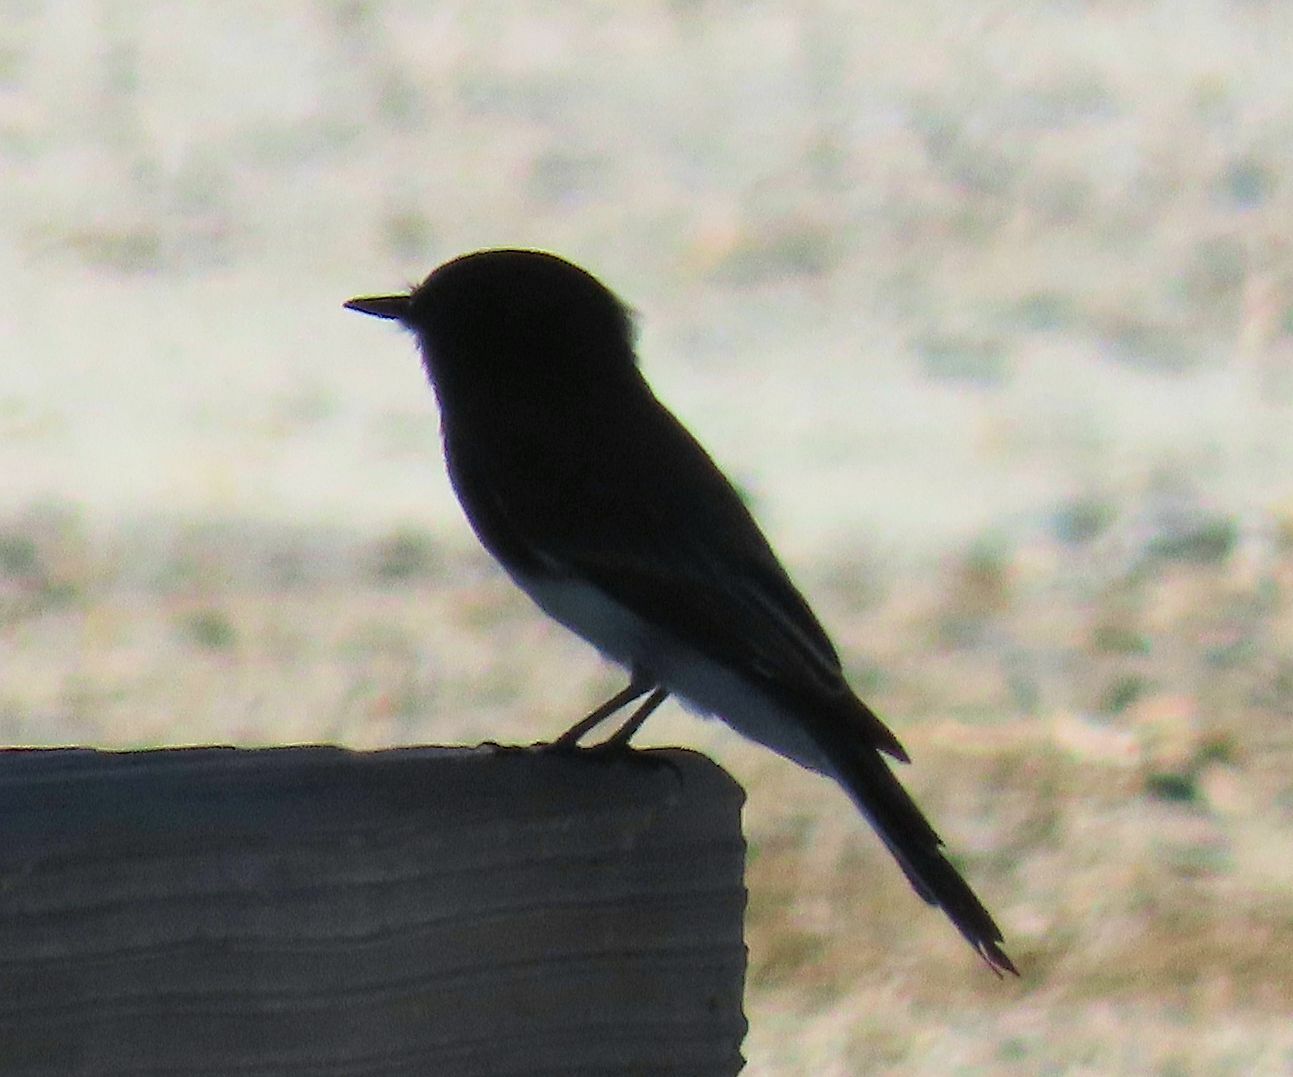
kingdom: Animalia
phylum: Chordata
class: Aves
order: Passeriformes
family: Tyrannidae
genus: Sayornis
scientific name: Sayornis nigricans
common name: Black phoebe
